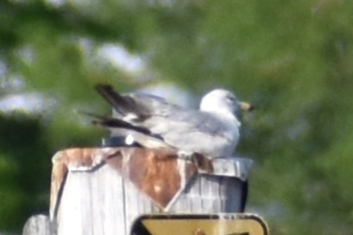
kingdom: Animalia
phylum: Chordata
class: Aves
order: Charadriiformes
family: Laridae
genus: Larus
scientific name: Larus delawarensis
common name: Ring-billed gull
